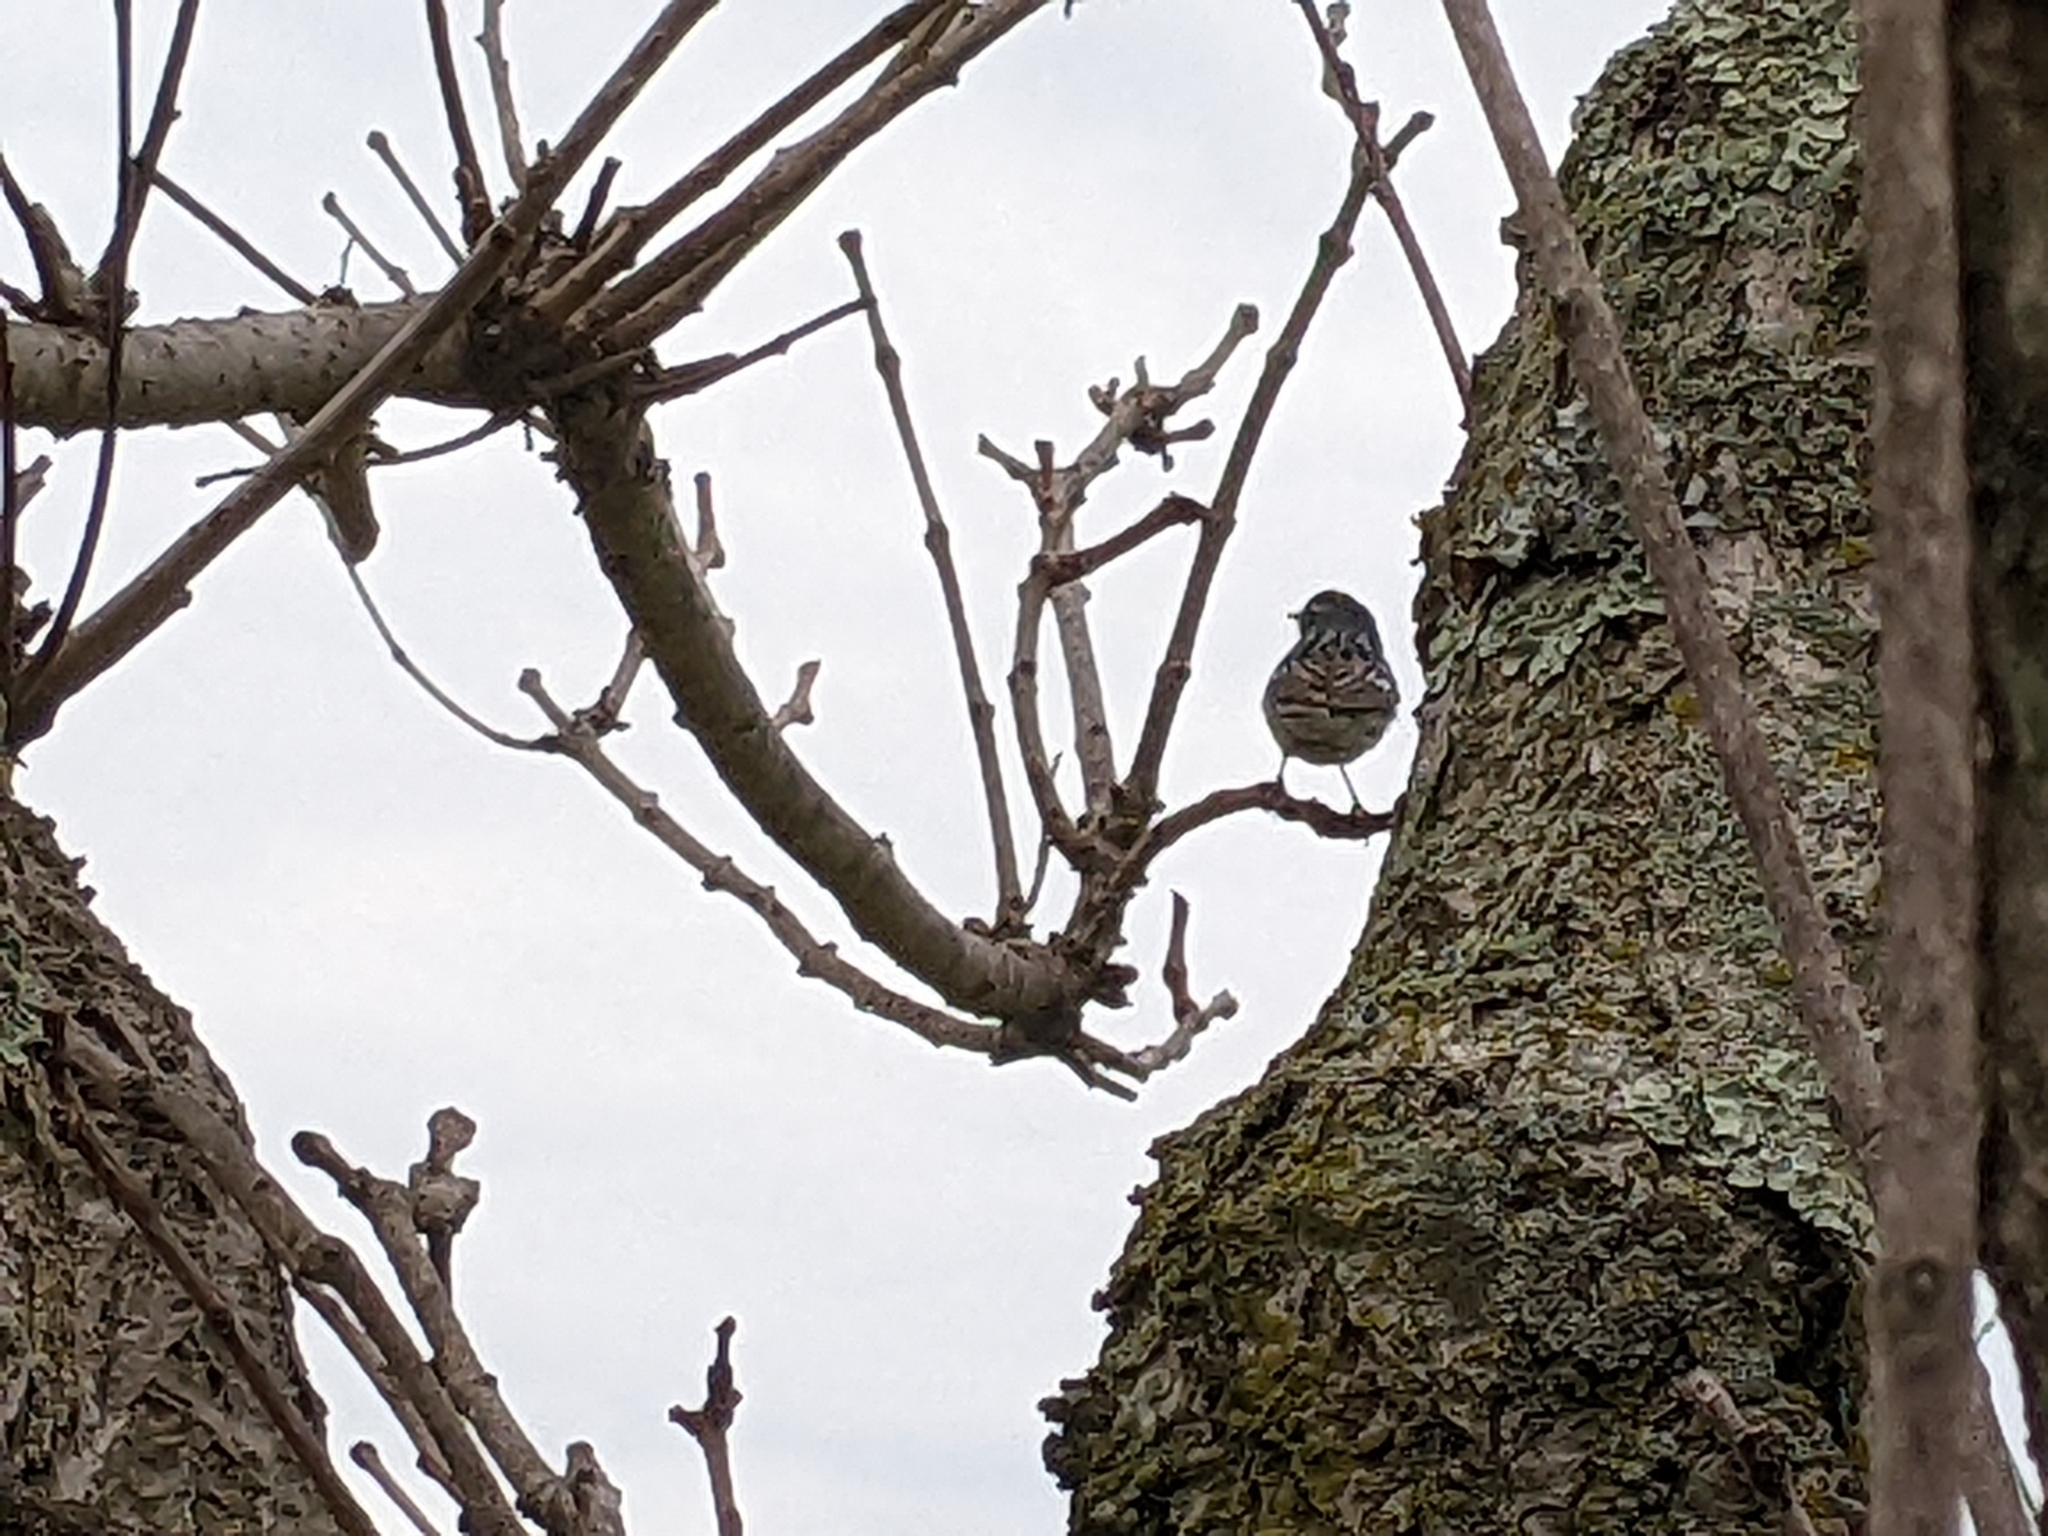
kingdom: Animalia
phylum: Chordata
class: Aves
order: Passeriformes
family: Parulidae
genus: Setophaga
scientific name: Setophaga coronata
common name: Myrtle warbler
